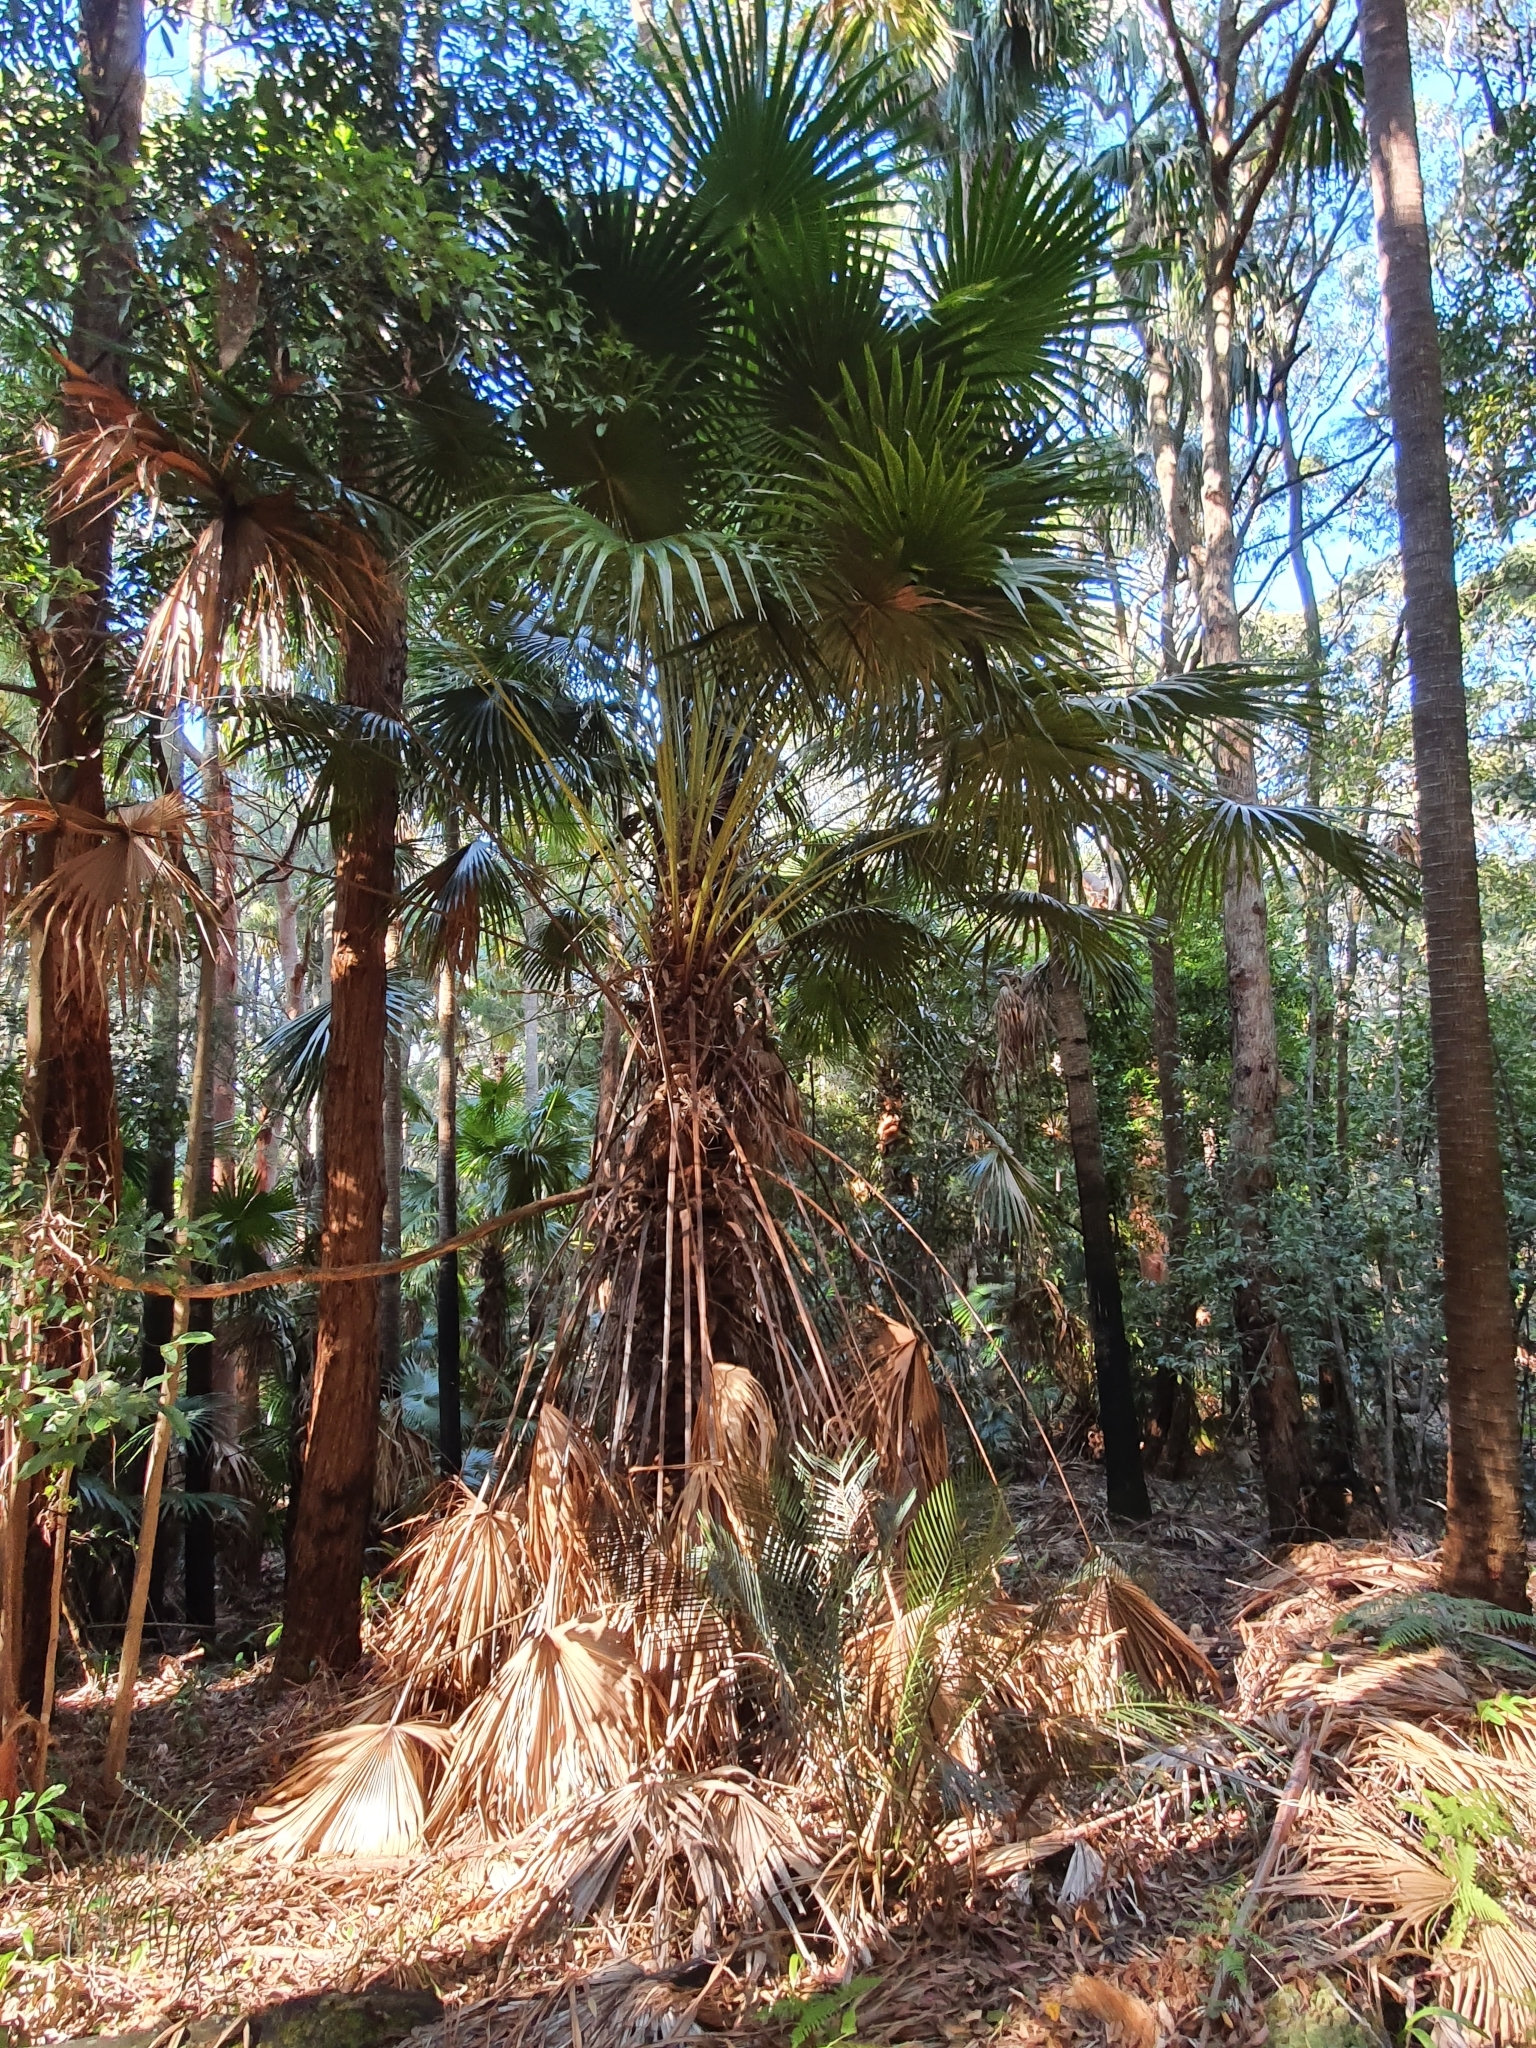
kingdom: Plantae
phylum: Tracheophyta
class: Liliopsida
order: Arecales
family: Arecaceae
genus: Livistona
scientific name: Livistona australis
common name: Cabbage fan palm
